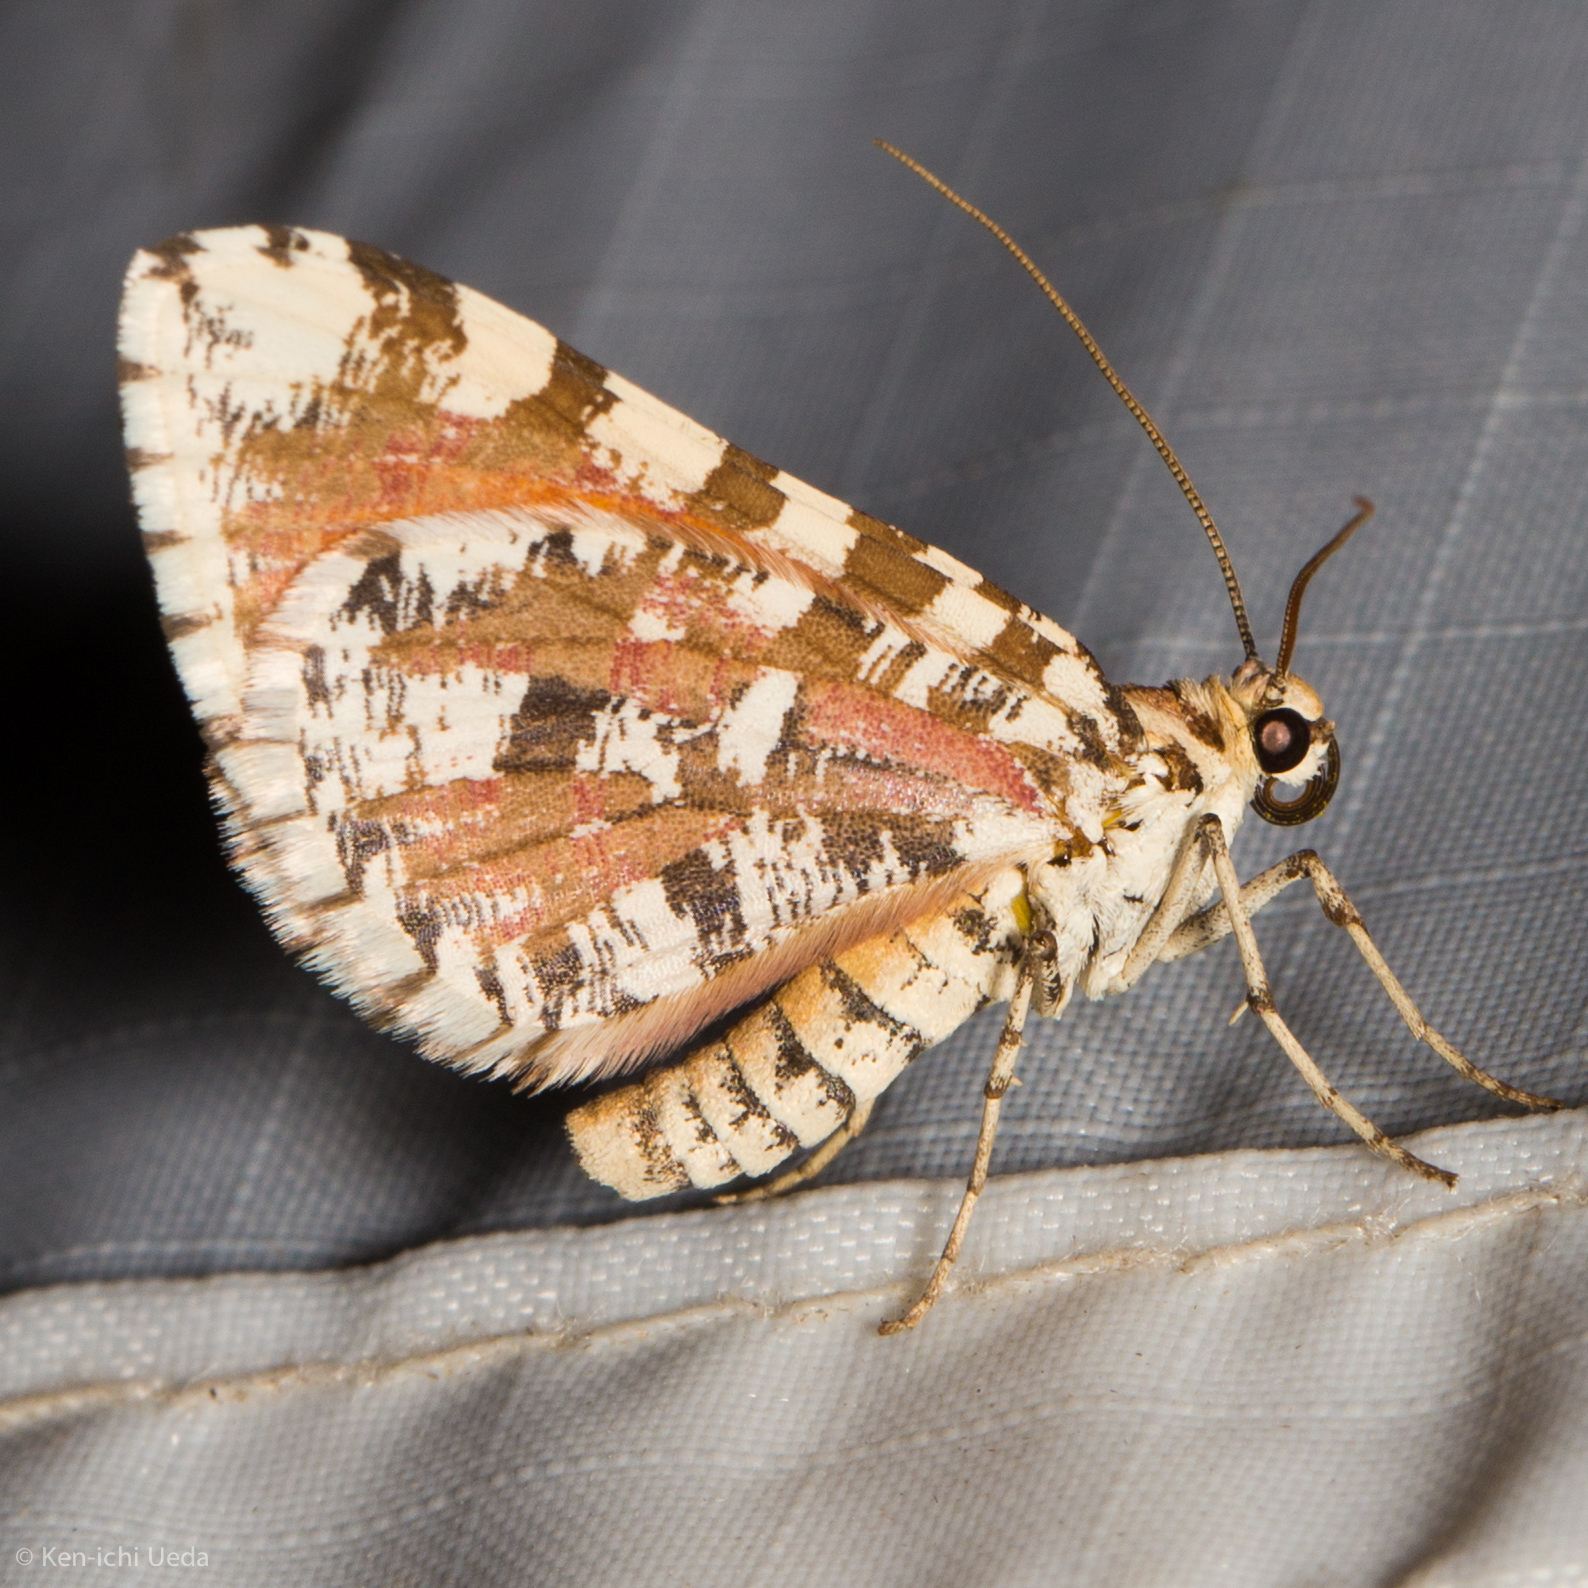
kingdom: Animalia
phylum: Arthropoda
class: Insecta
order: Lepidoptera
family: Geometridae
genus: Stamnodes
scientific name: Stamnodes tessellata
